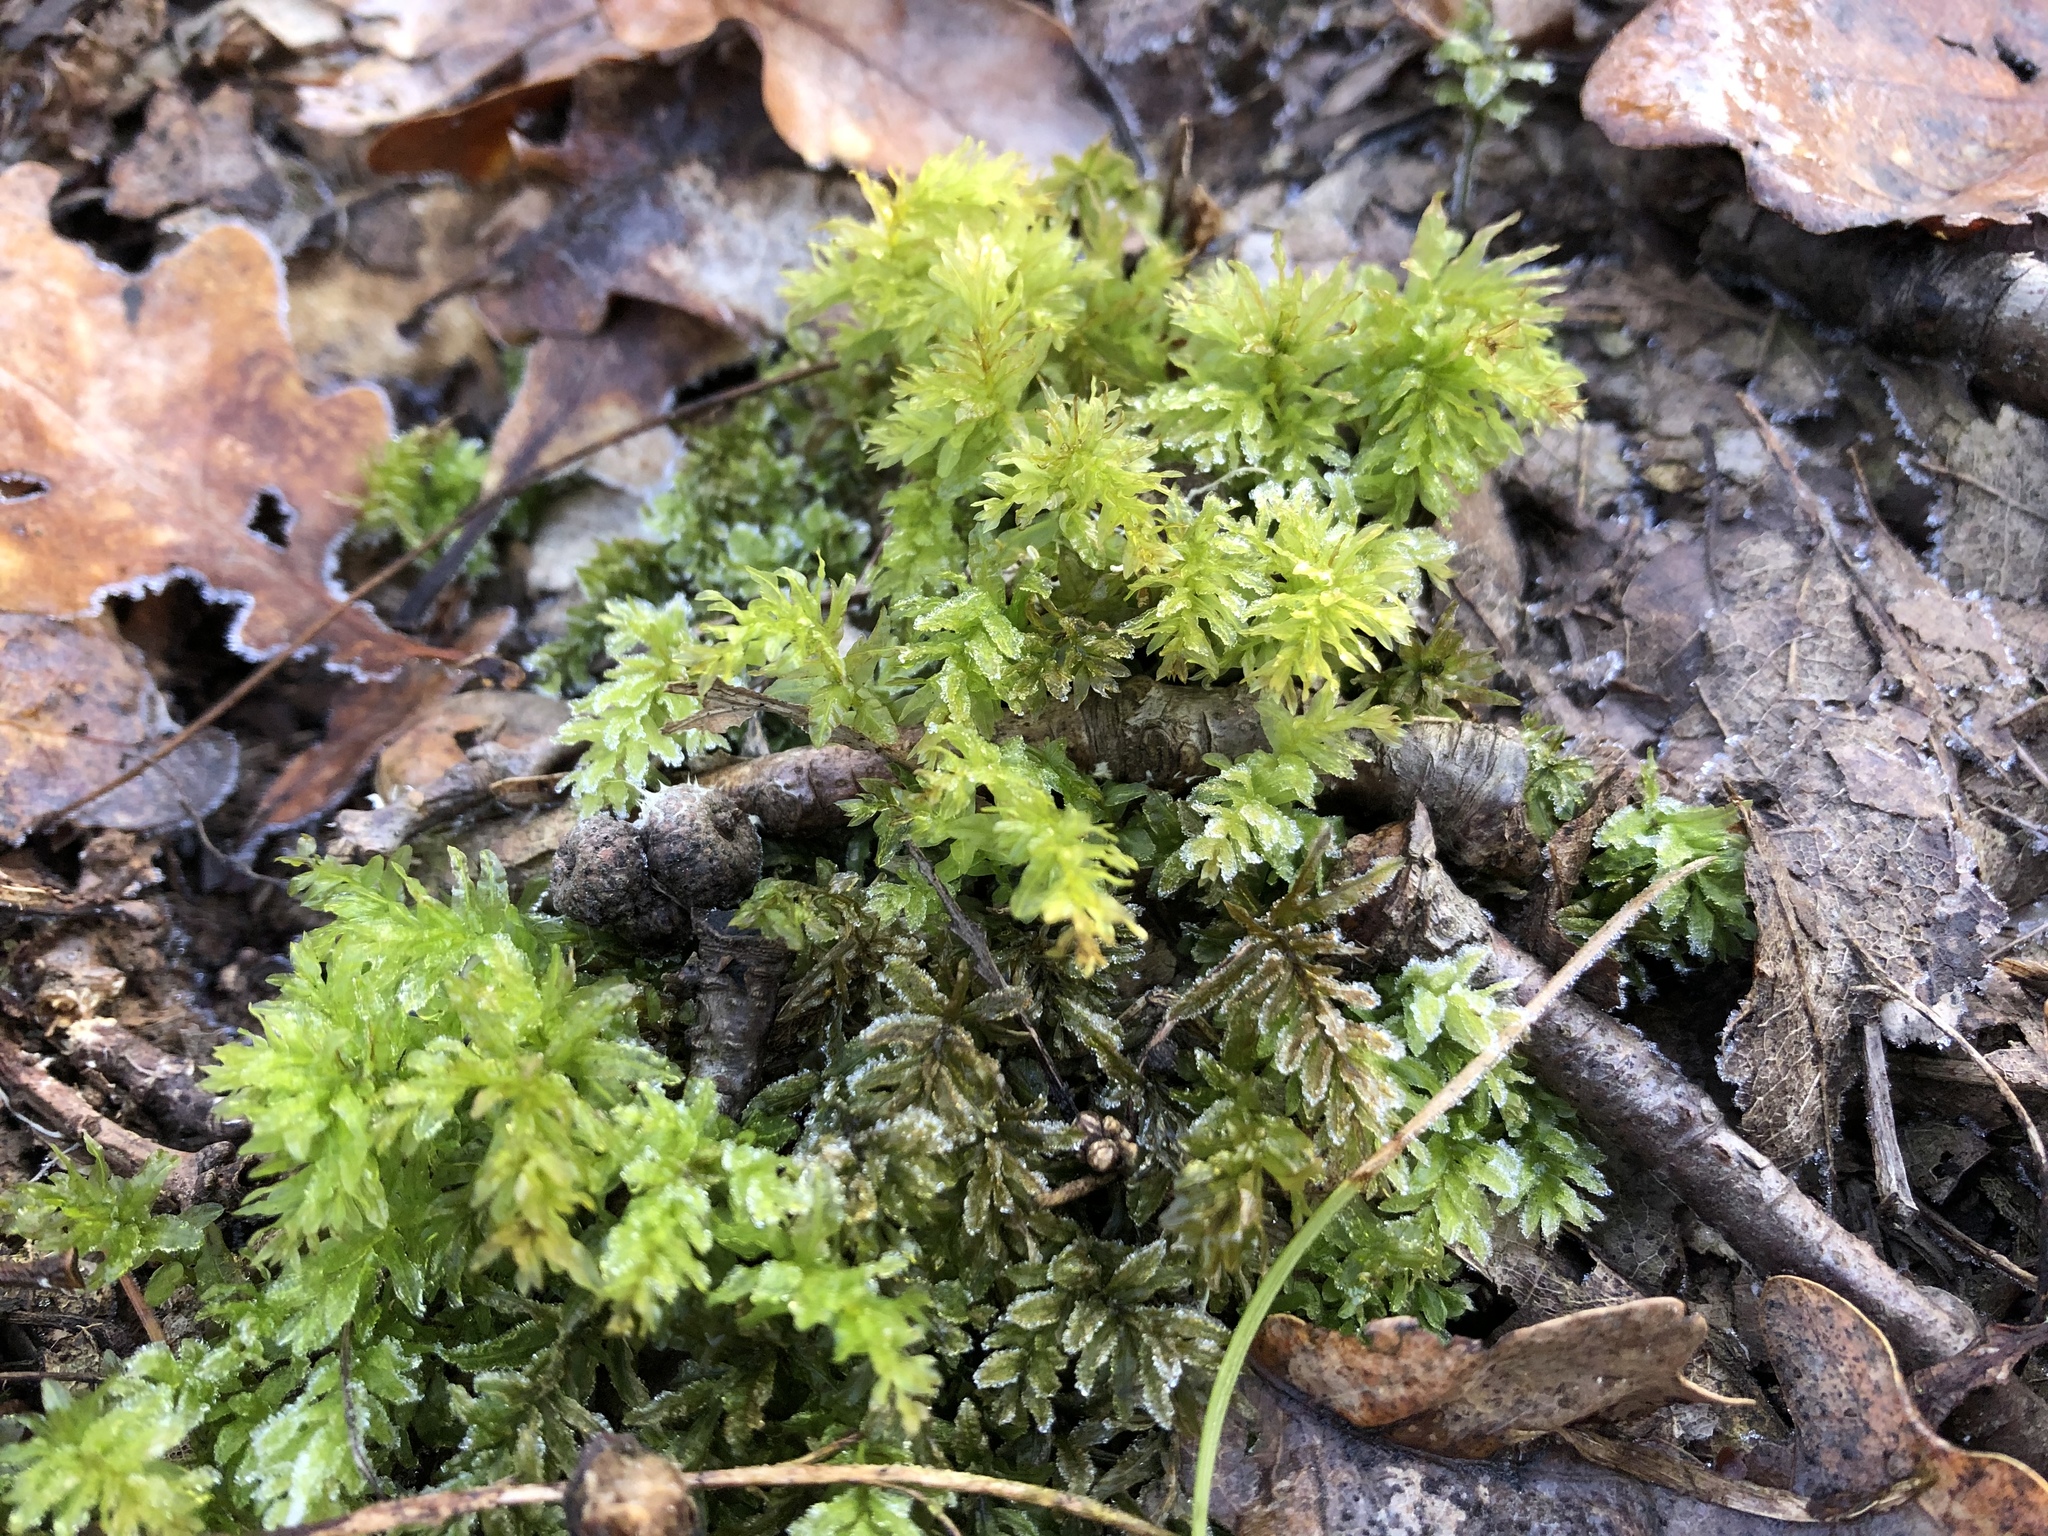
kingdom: Plantae
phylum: Bryophyta
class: Bryopsida
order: Bryales
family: Mniaceae
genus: Plagiomnium
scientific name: Plagiomnium undulatum
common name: Hart's-tongue thyme-moss
